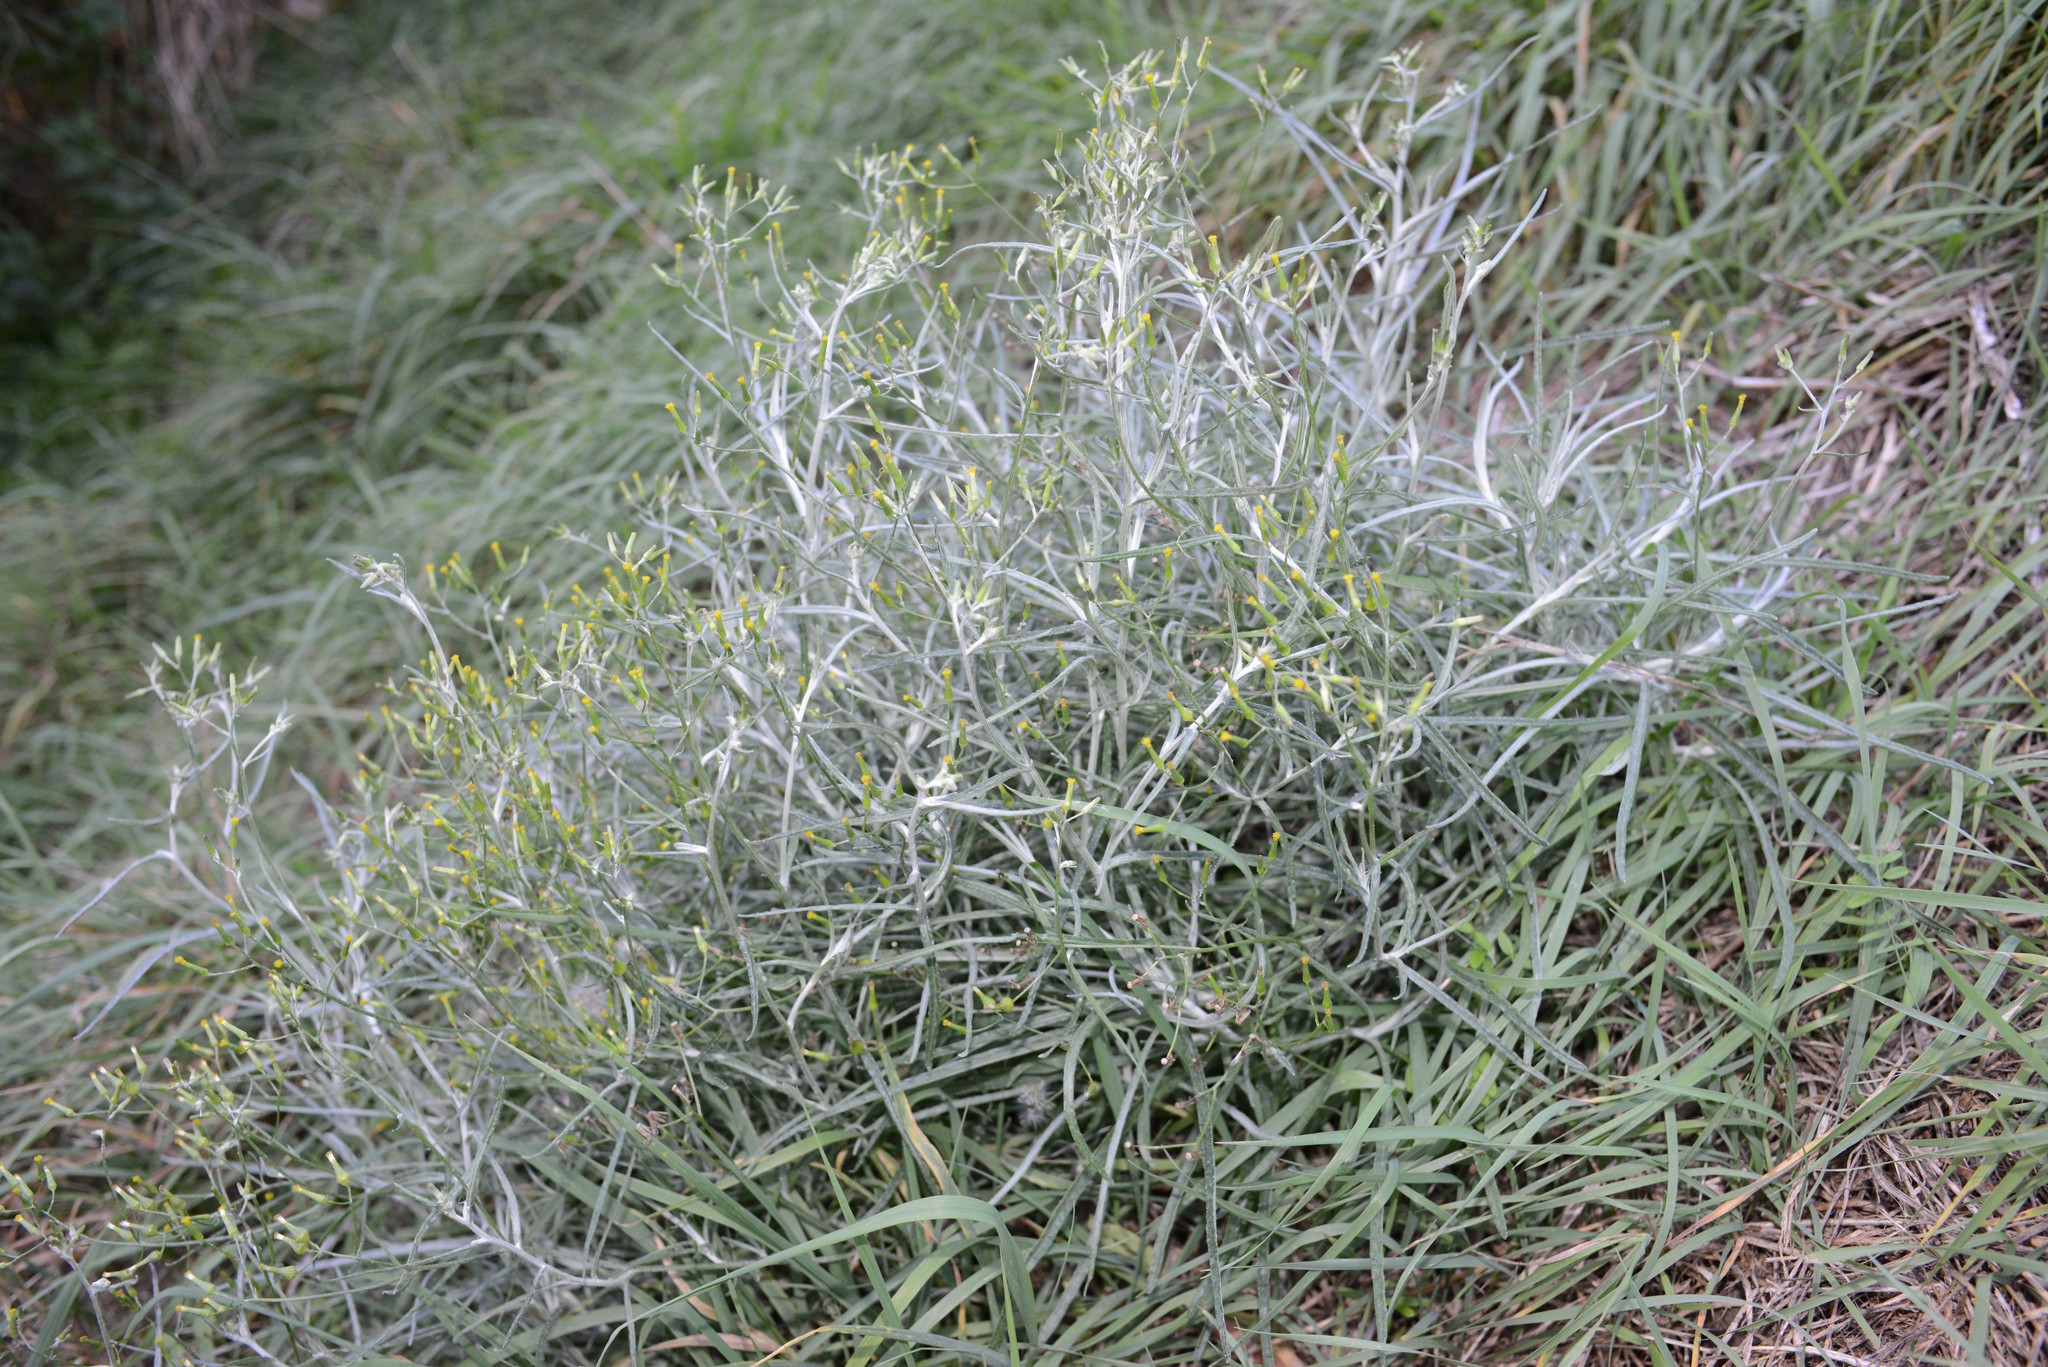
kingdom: Plantae
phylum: Tracheophyta
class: Magnoliopsida
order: Asterales
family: Asteraceae
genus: Senecio
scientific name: Senecio quadridentatus
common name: Cotton fireweed
